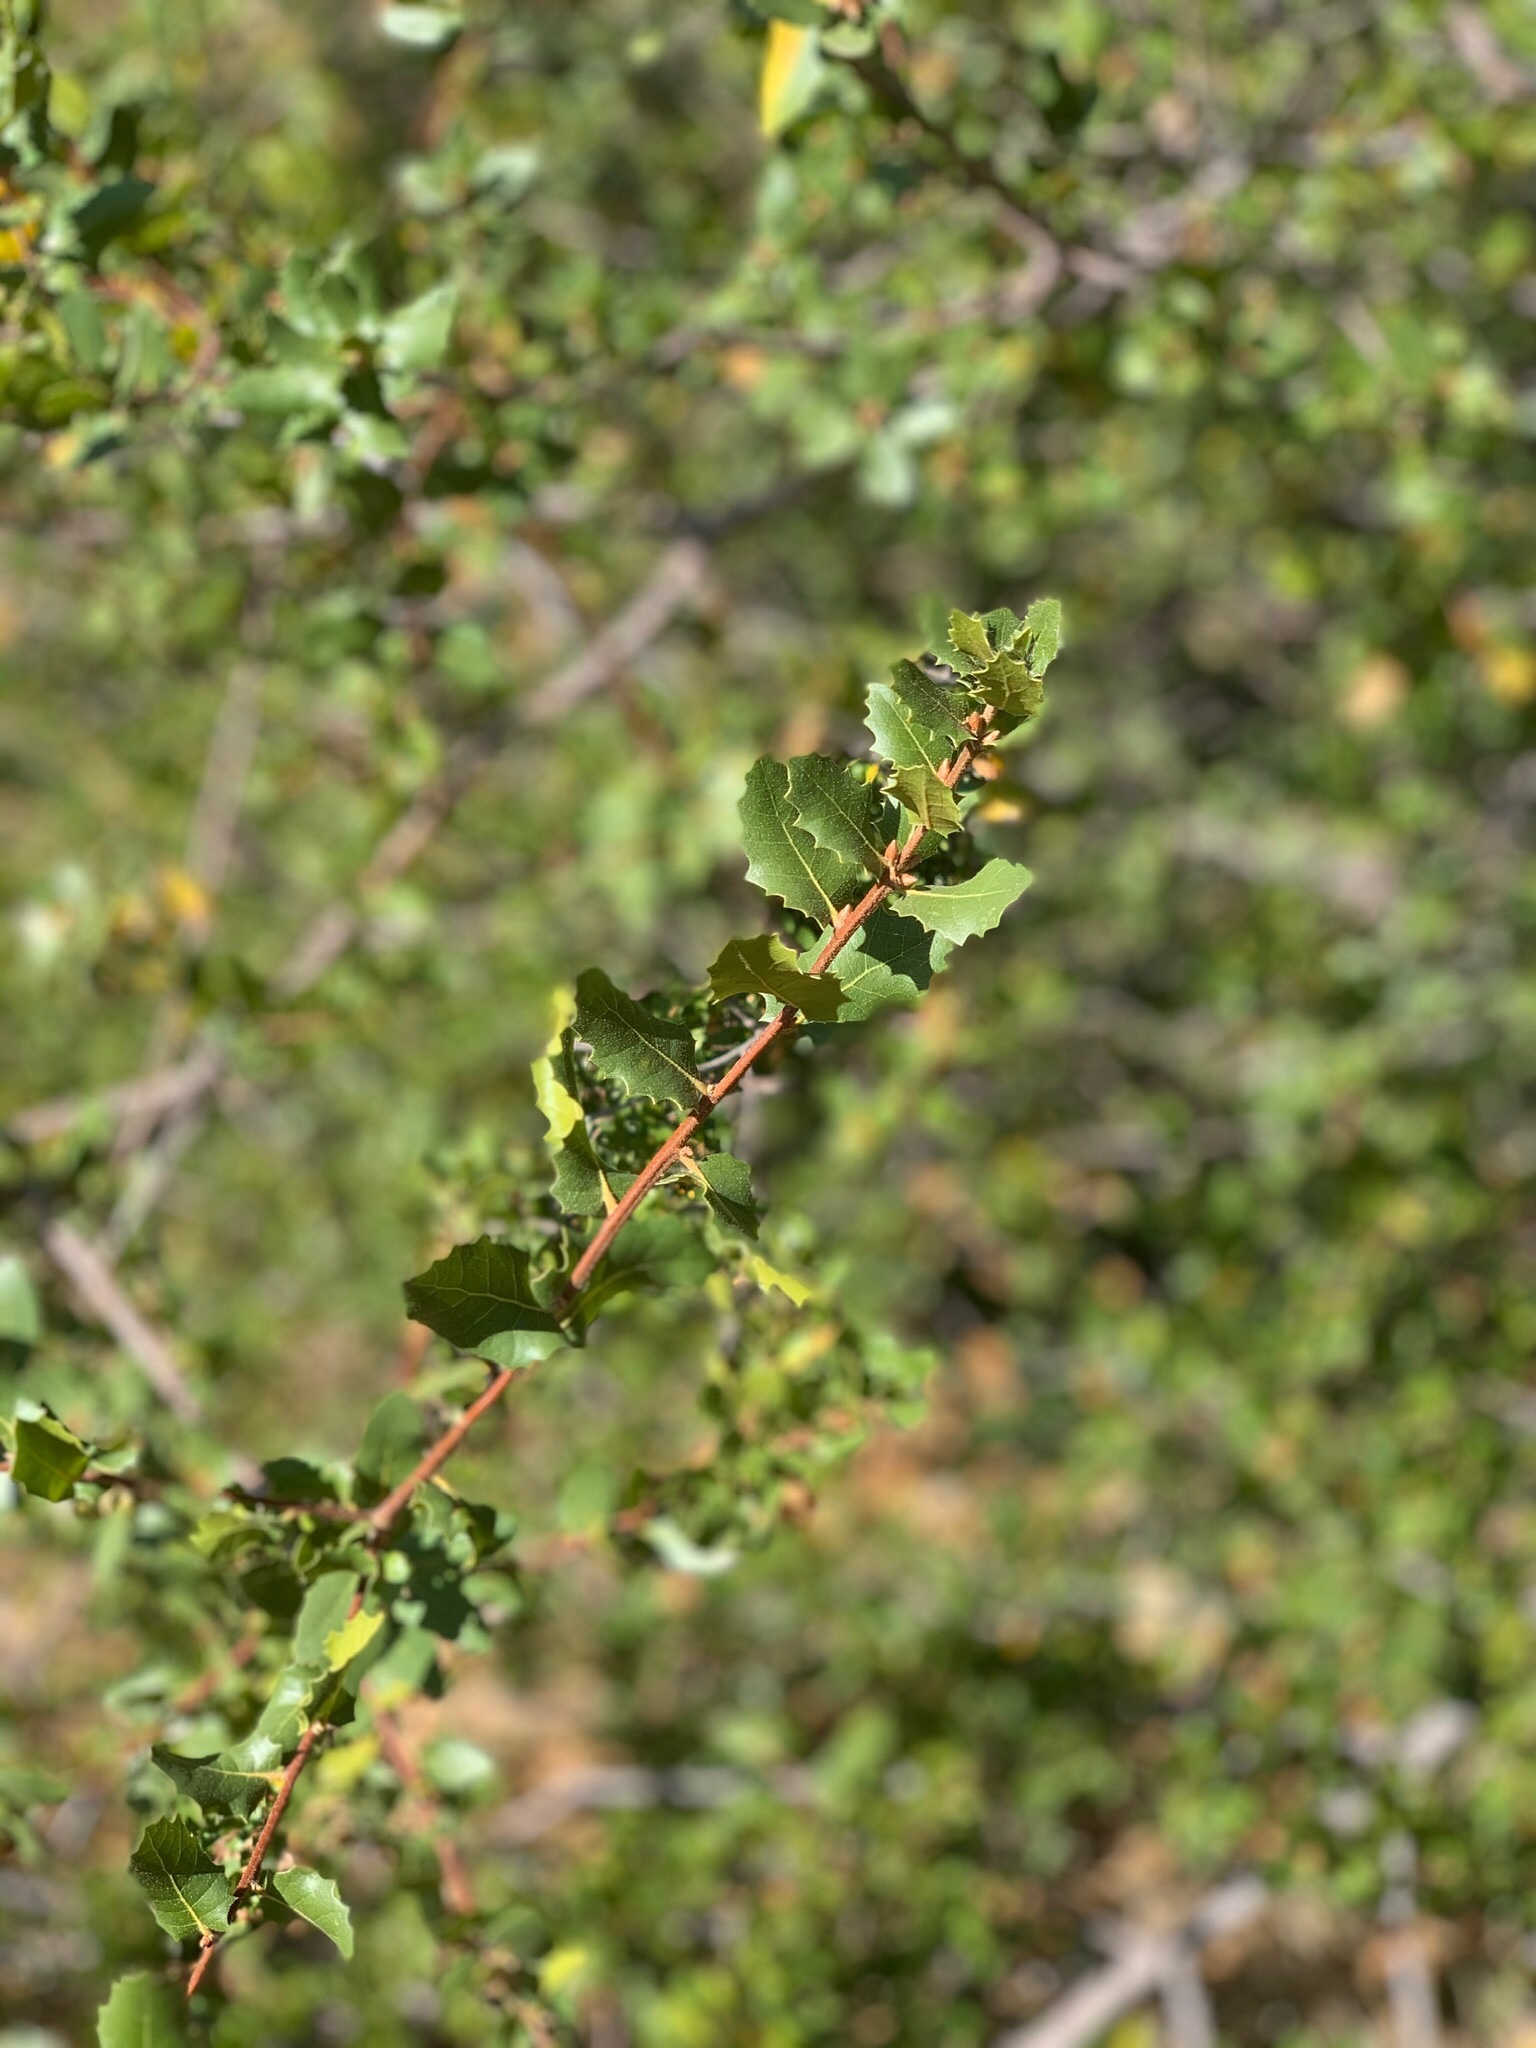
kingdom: Plantae
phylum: Tracheophyta
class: Magnoliopsida
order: Fagales
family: Fagaceae
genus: Quercus
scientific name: Quercus wislizeni
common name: Interior live oak
